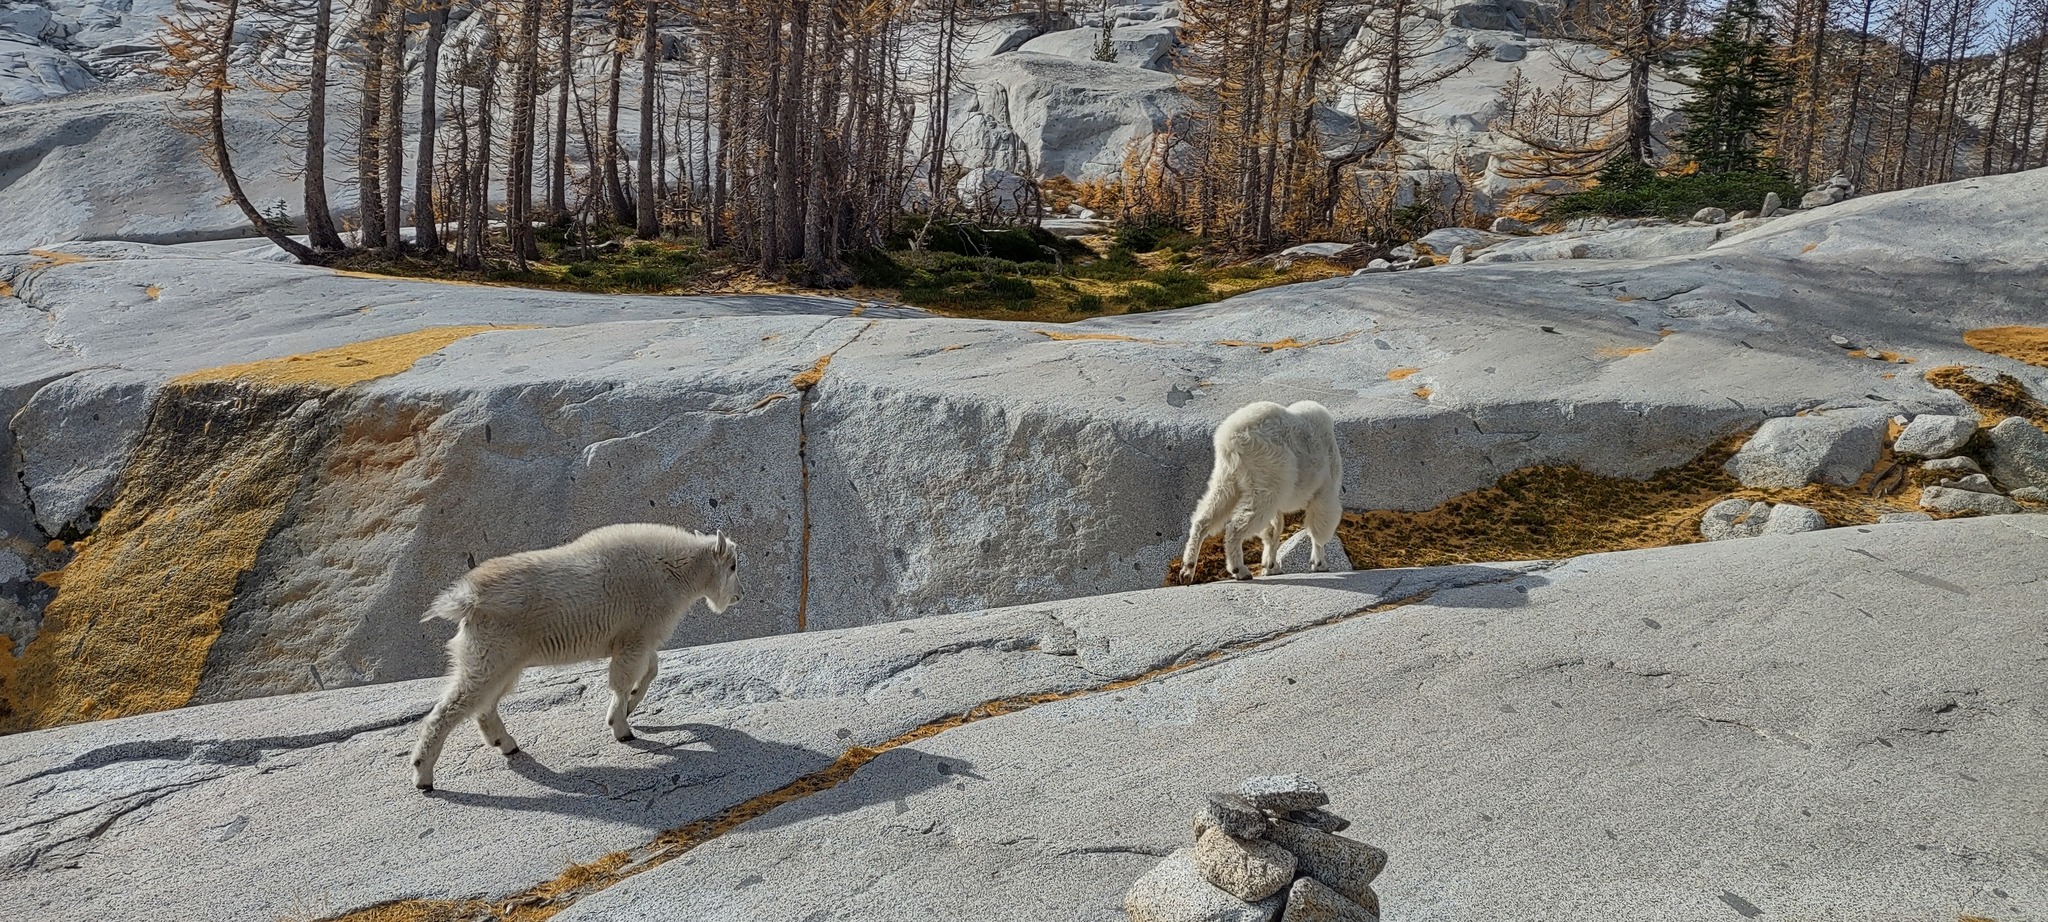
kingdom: Animalia
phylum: Chordata
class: Mammalia
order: Artiodactyla
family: Bovidae
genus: Oreamnos
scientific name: Oreamnos americanus
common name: Mountain goat
